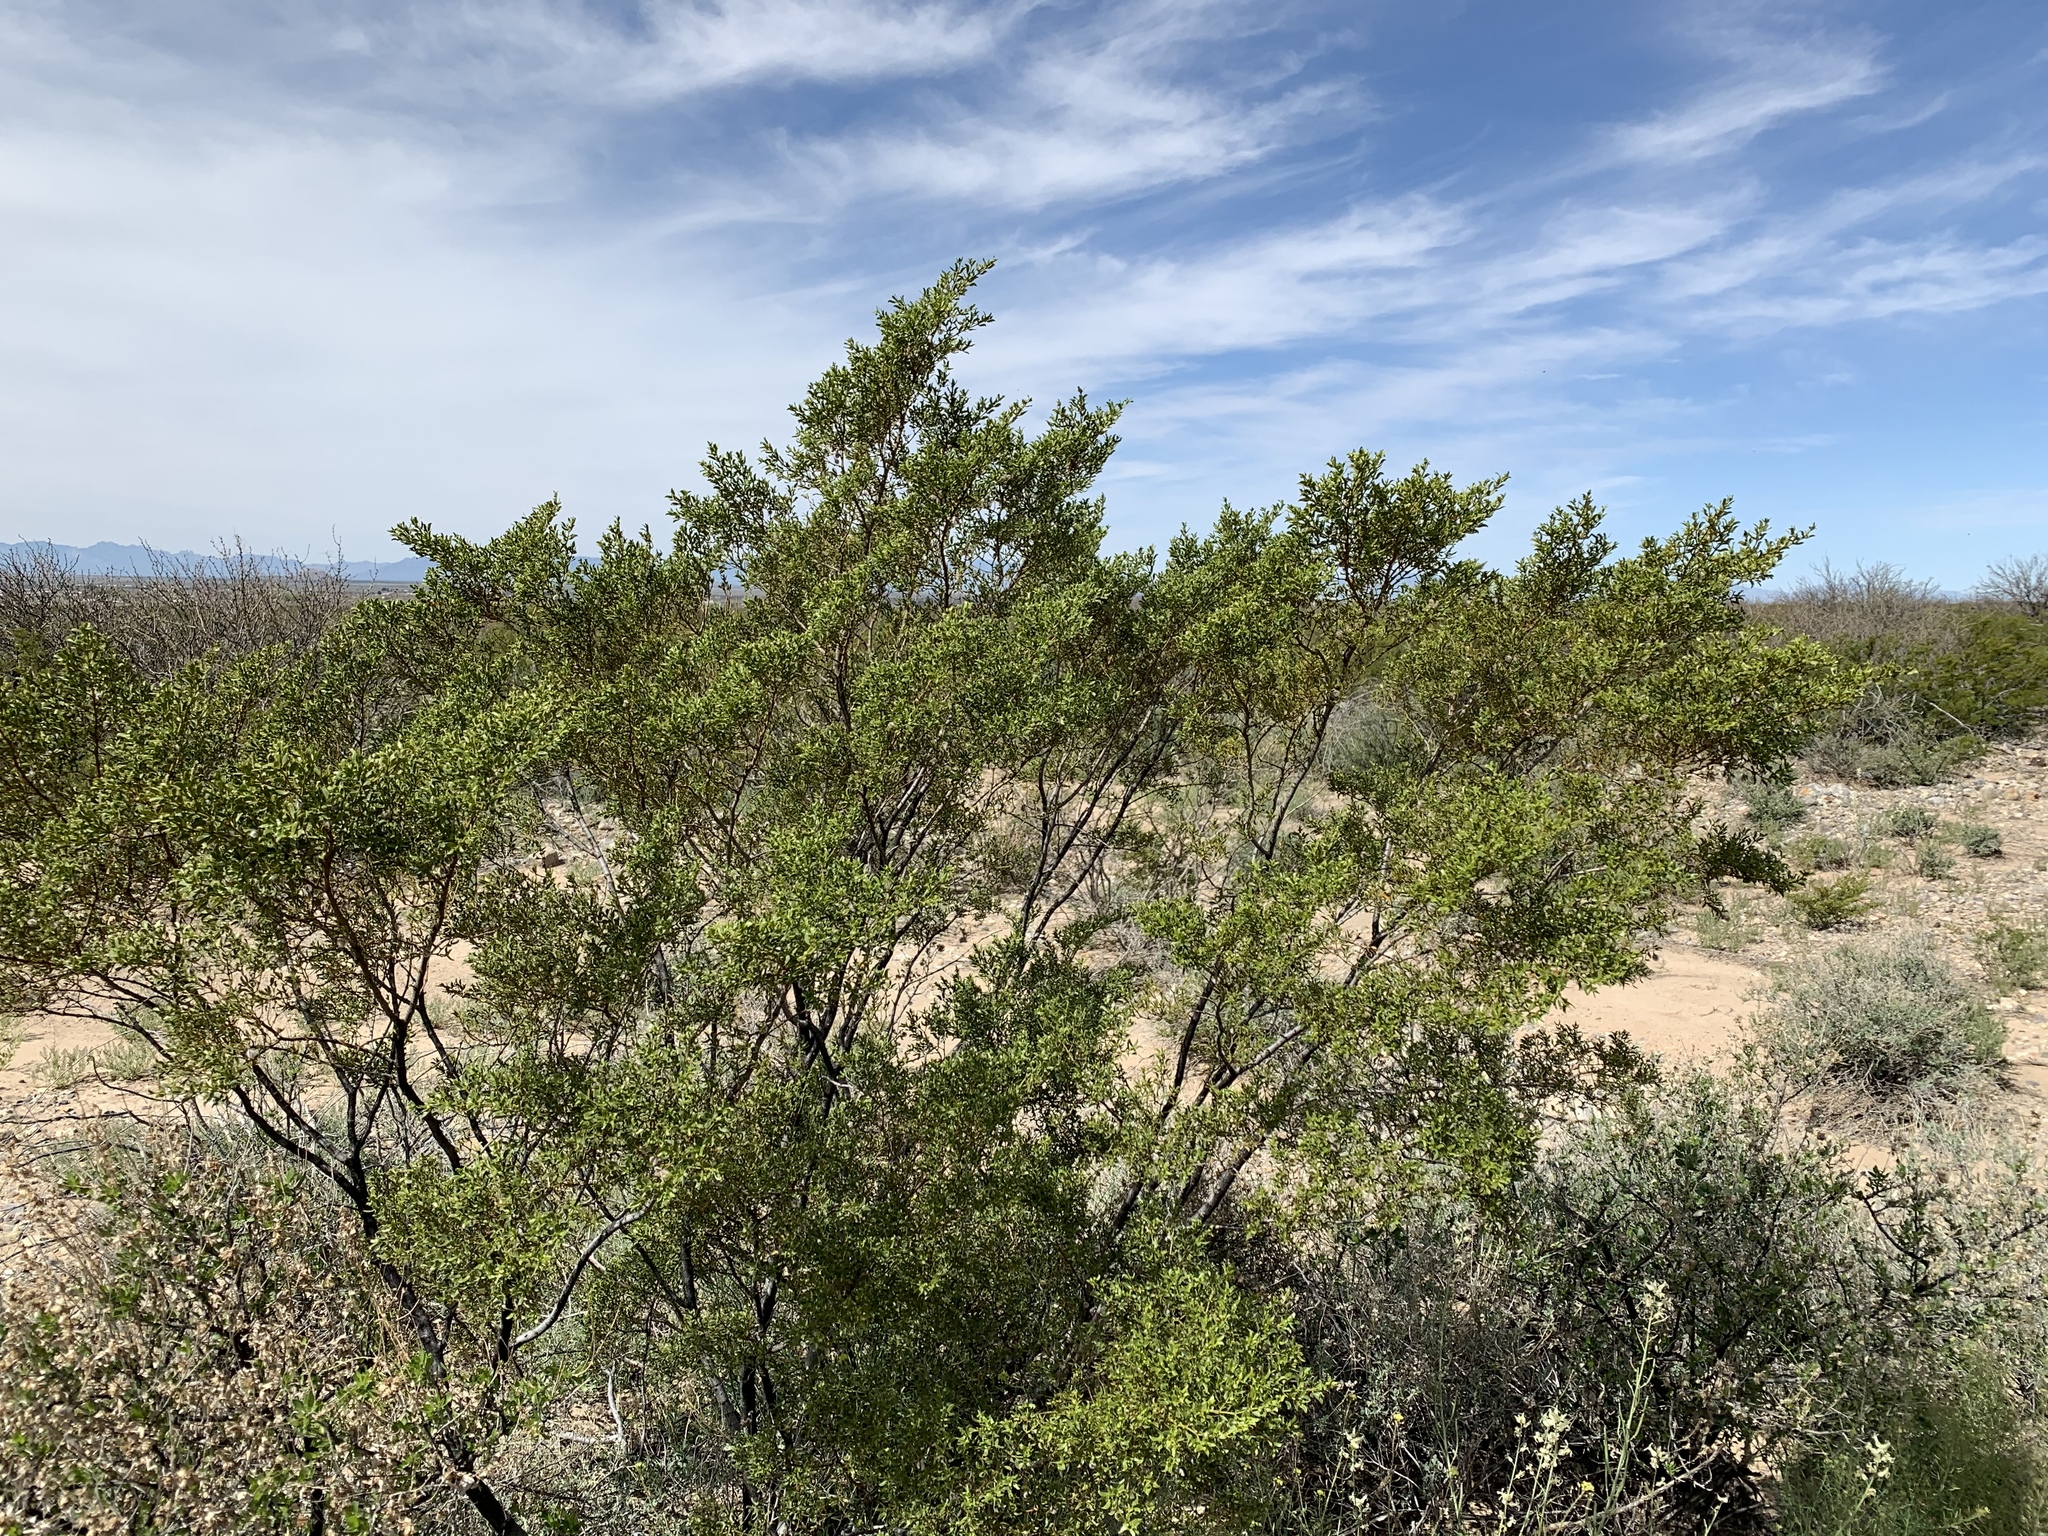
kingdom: Plantae
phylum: Tracheophyta
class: Magnoliopsida
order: Zygophyllales
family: Zygophyllaceae
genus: Larrea
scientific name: Larrea tridentata
